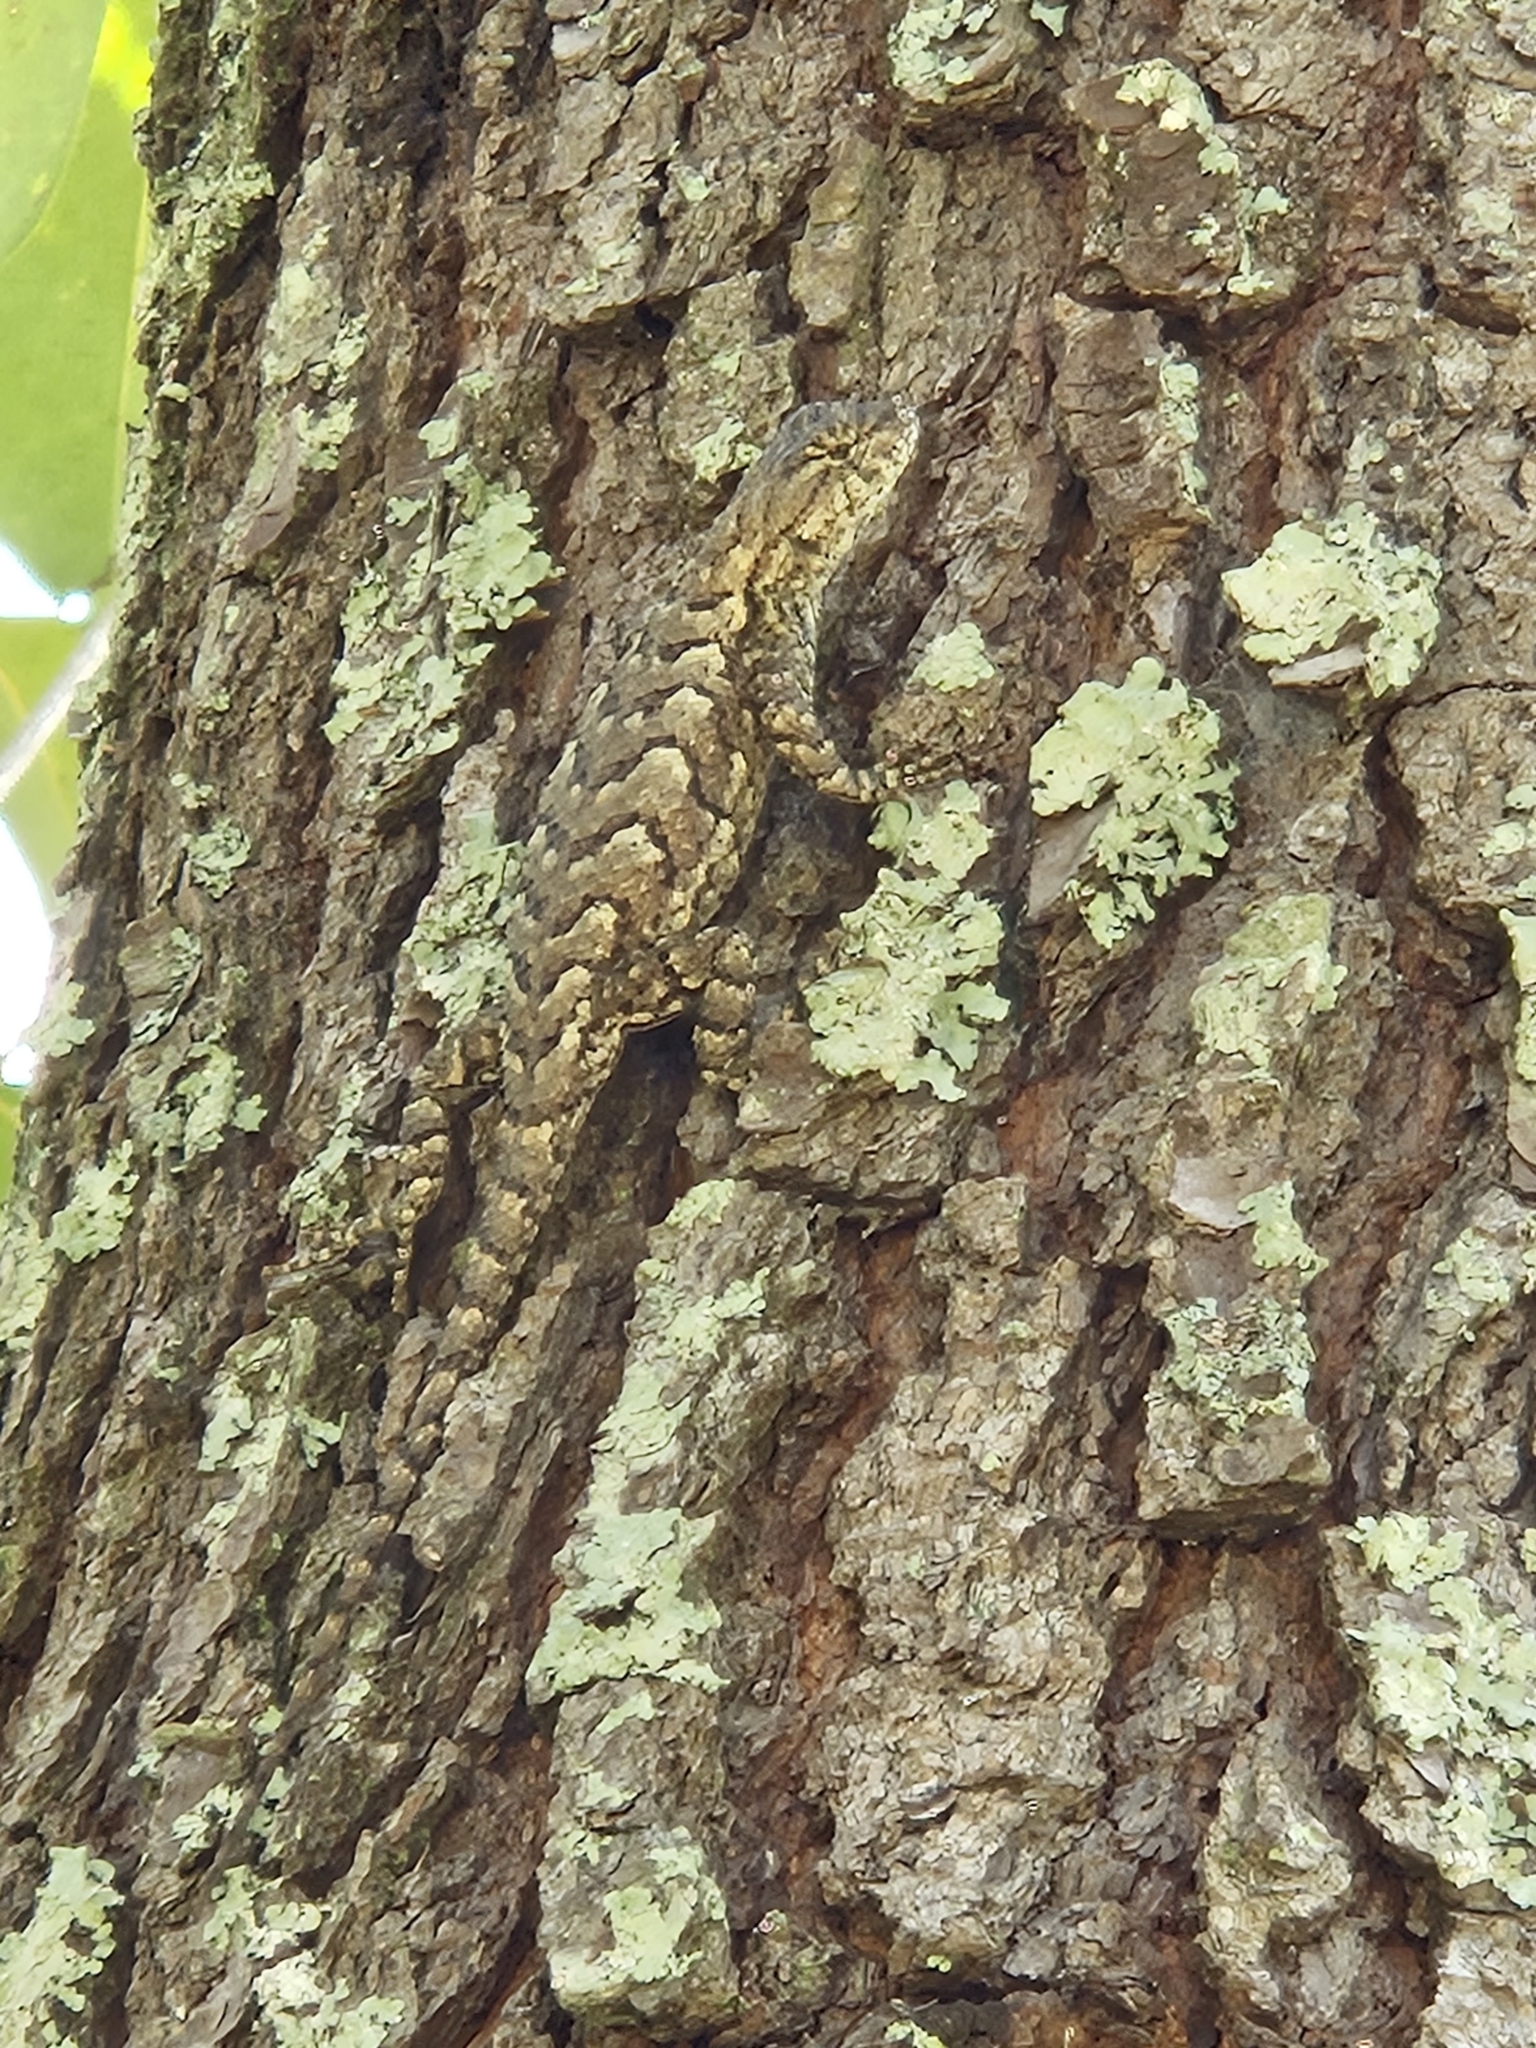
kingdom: Animalia
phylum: Chordata
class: Squamata
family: Phrynosomatidae
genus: Sceloporus
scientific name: Sceloporus consobrinus
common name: Southern prairie lizard
